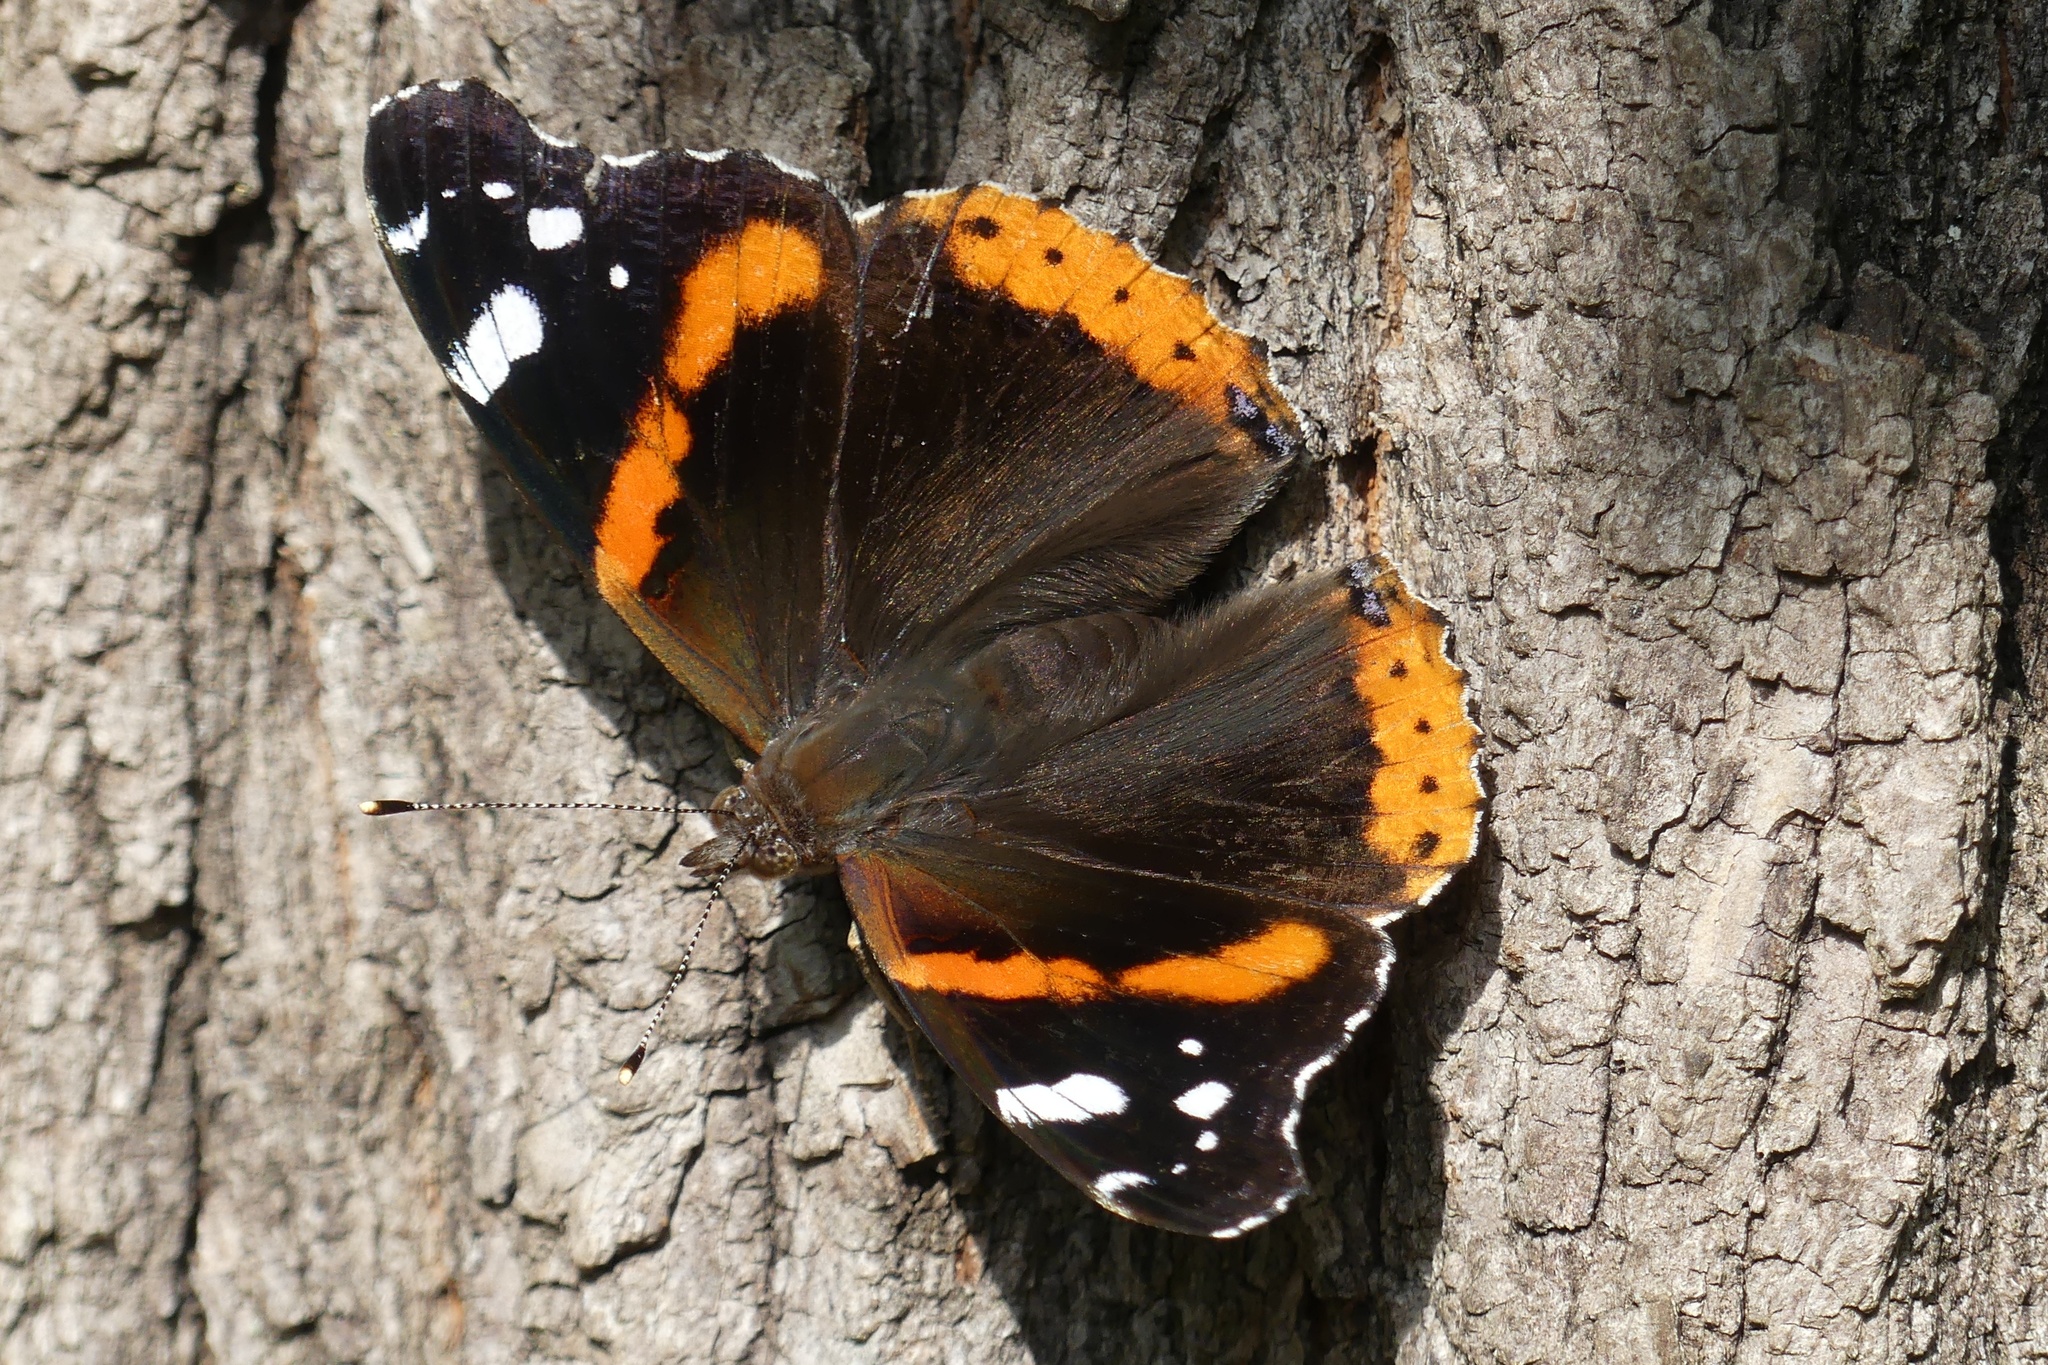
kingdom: Animalia
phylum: Arthropoda
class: Insecta
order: Lepidoptera
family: Nymphalidae
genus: Vanessa
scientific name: Vanessa atalanta
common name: Red admiral
